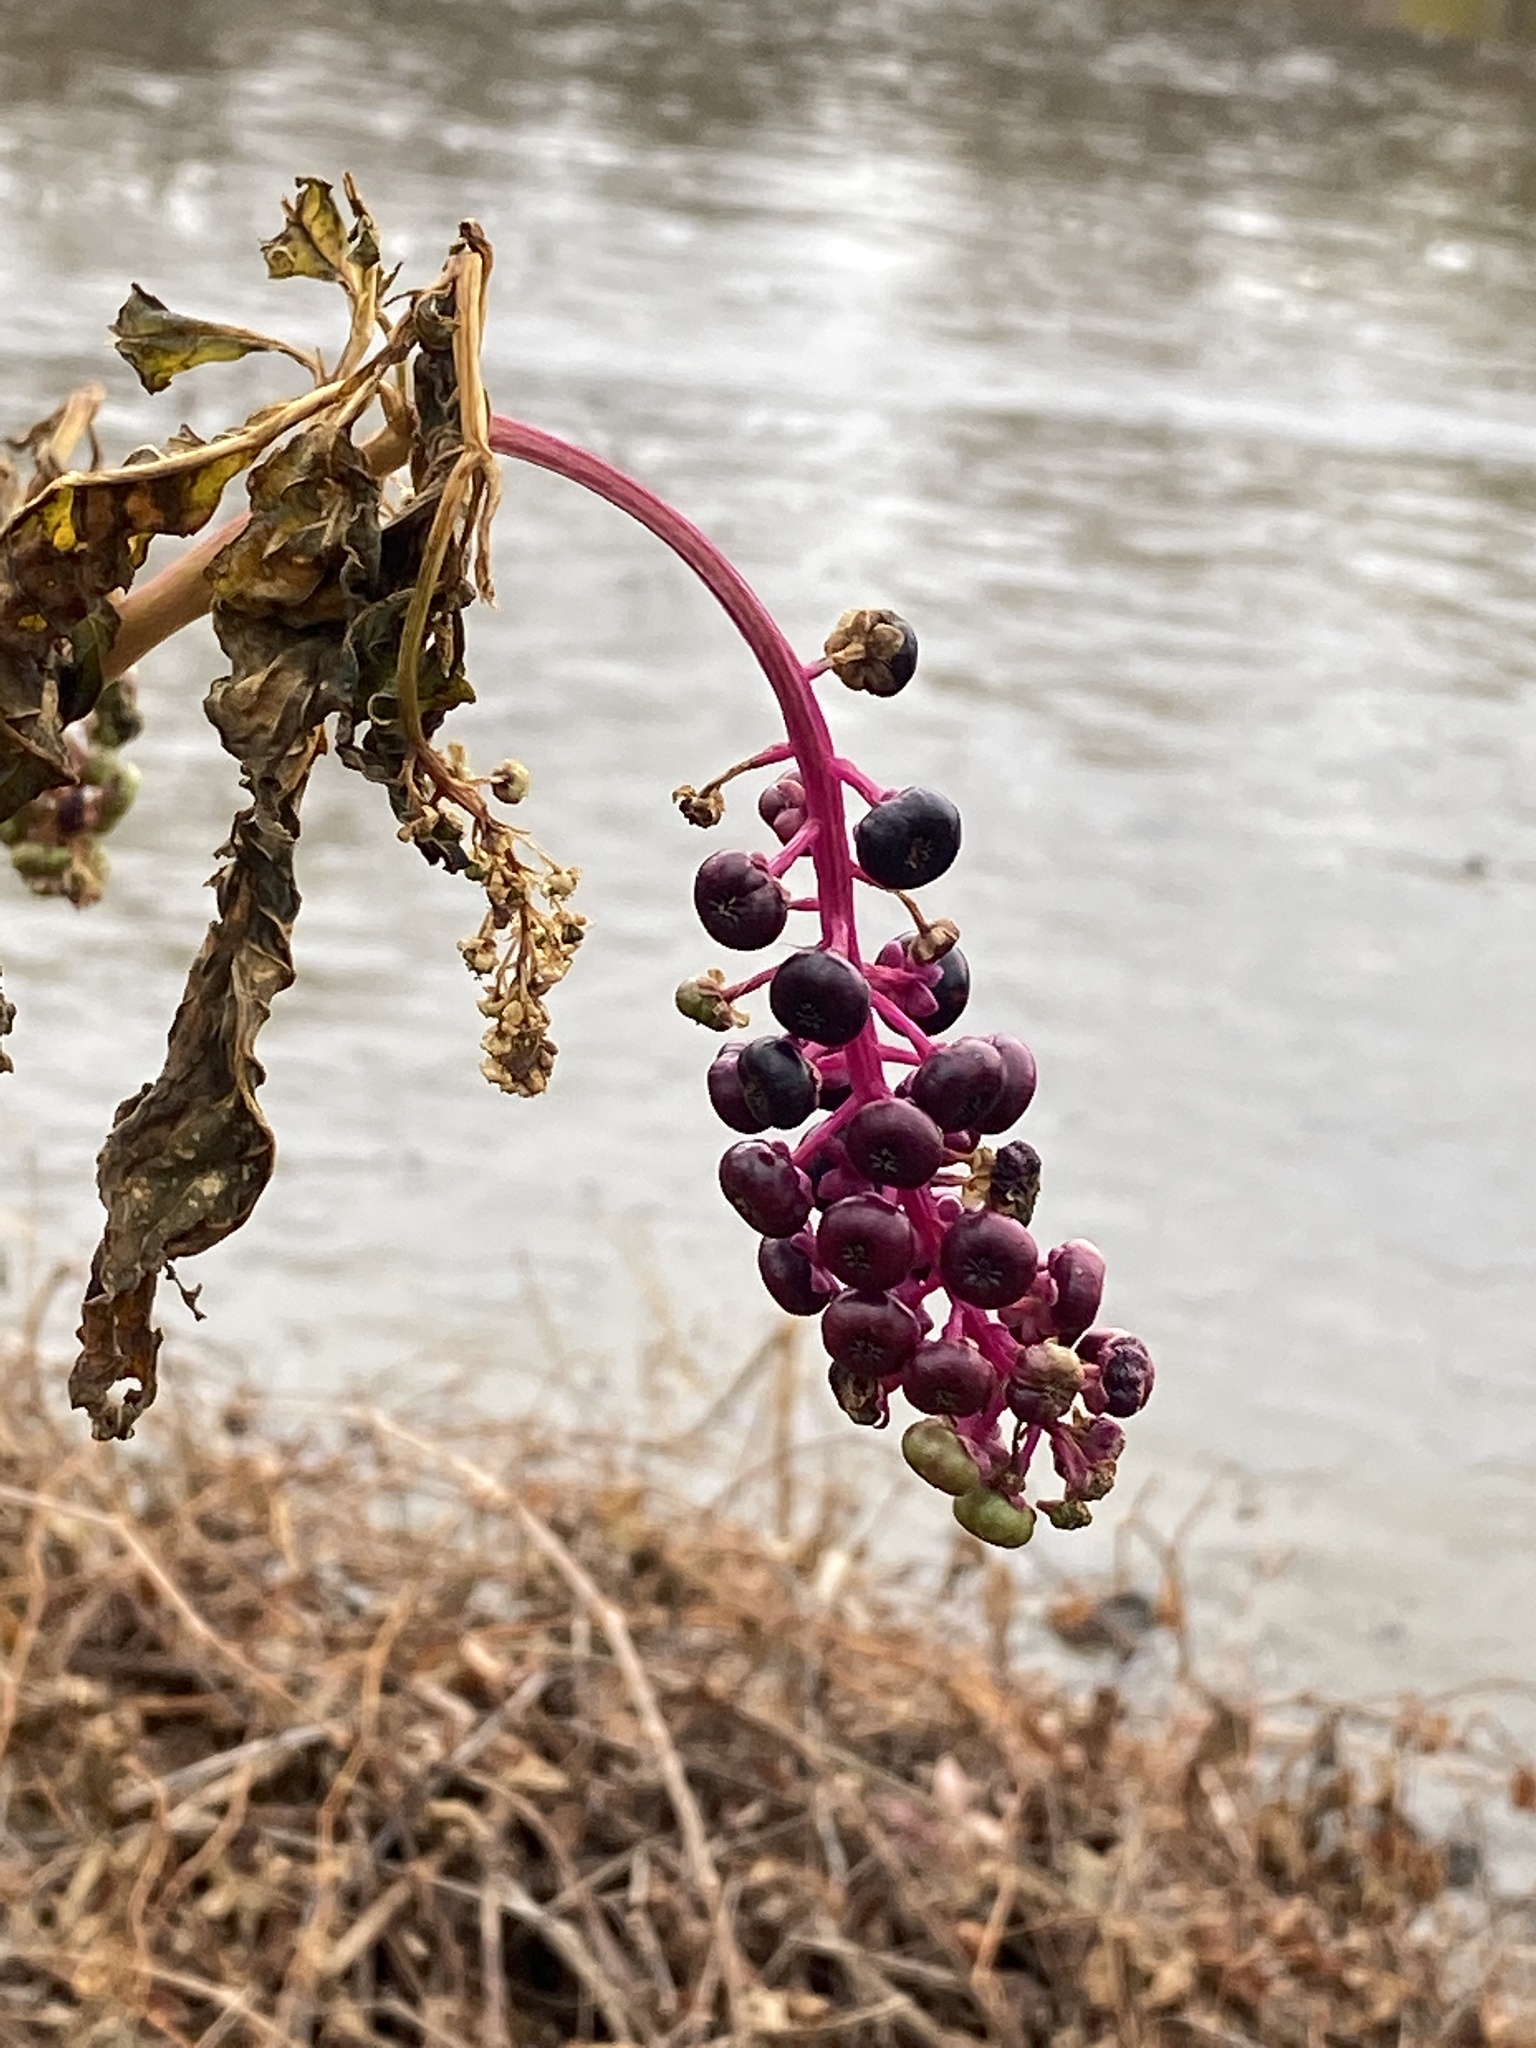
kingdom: Plantae
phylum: Tracheophyta
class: Magnoliopsida
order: Caryophyllales
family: Phytolaccaceae
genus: Phytolacca
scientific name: Phytolacca americana
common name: American pokeweed
